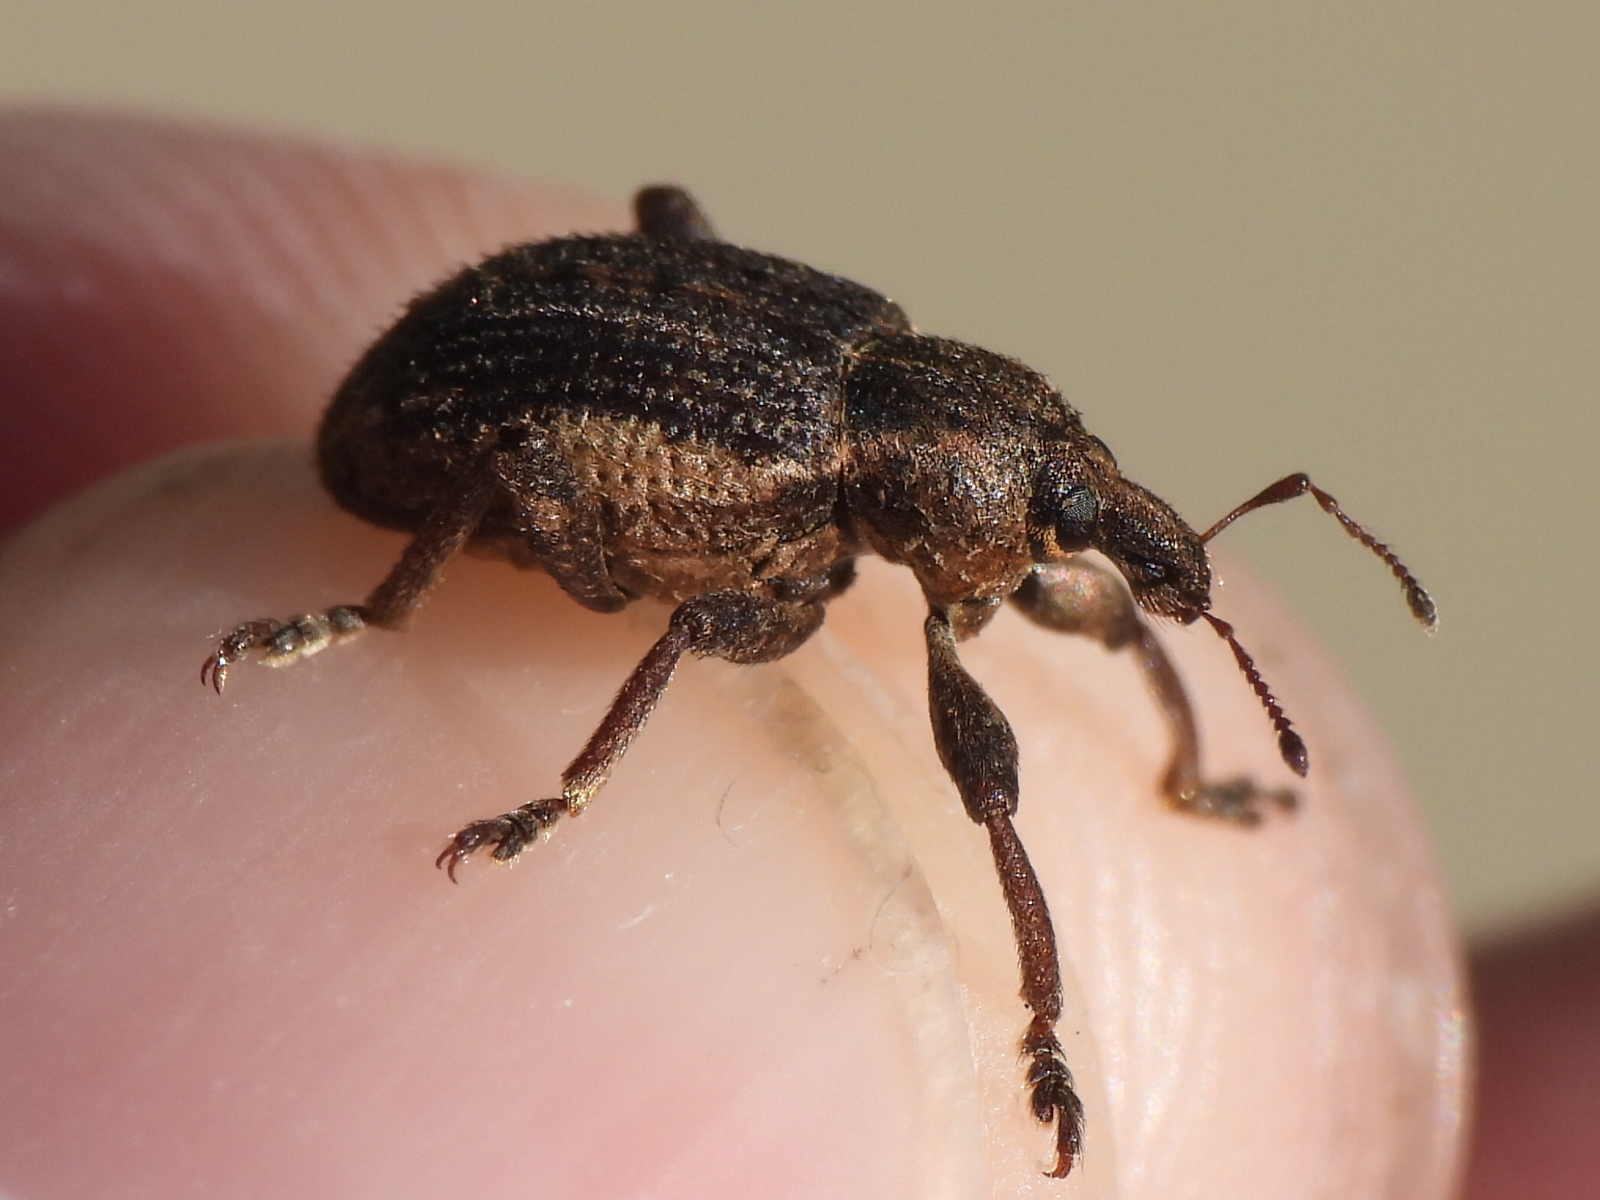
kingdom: Animalia
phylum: Arthropoda
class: Insecta
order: Coleoptera
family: Curculionidae
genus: Brachypera
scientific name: Brachypera zoilus
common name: Clover leaf weevil
